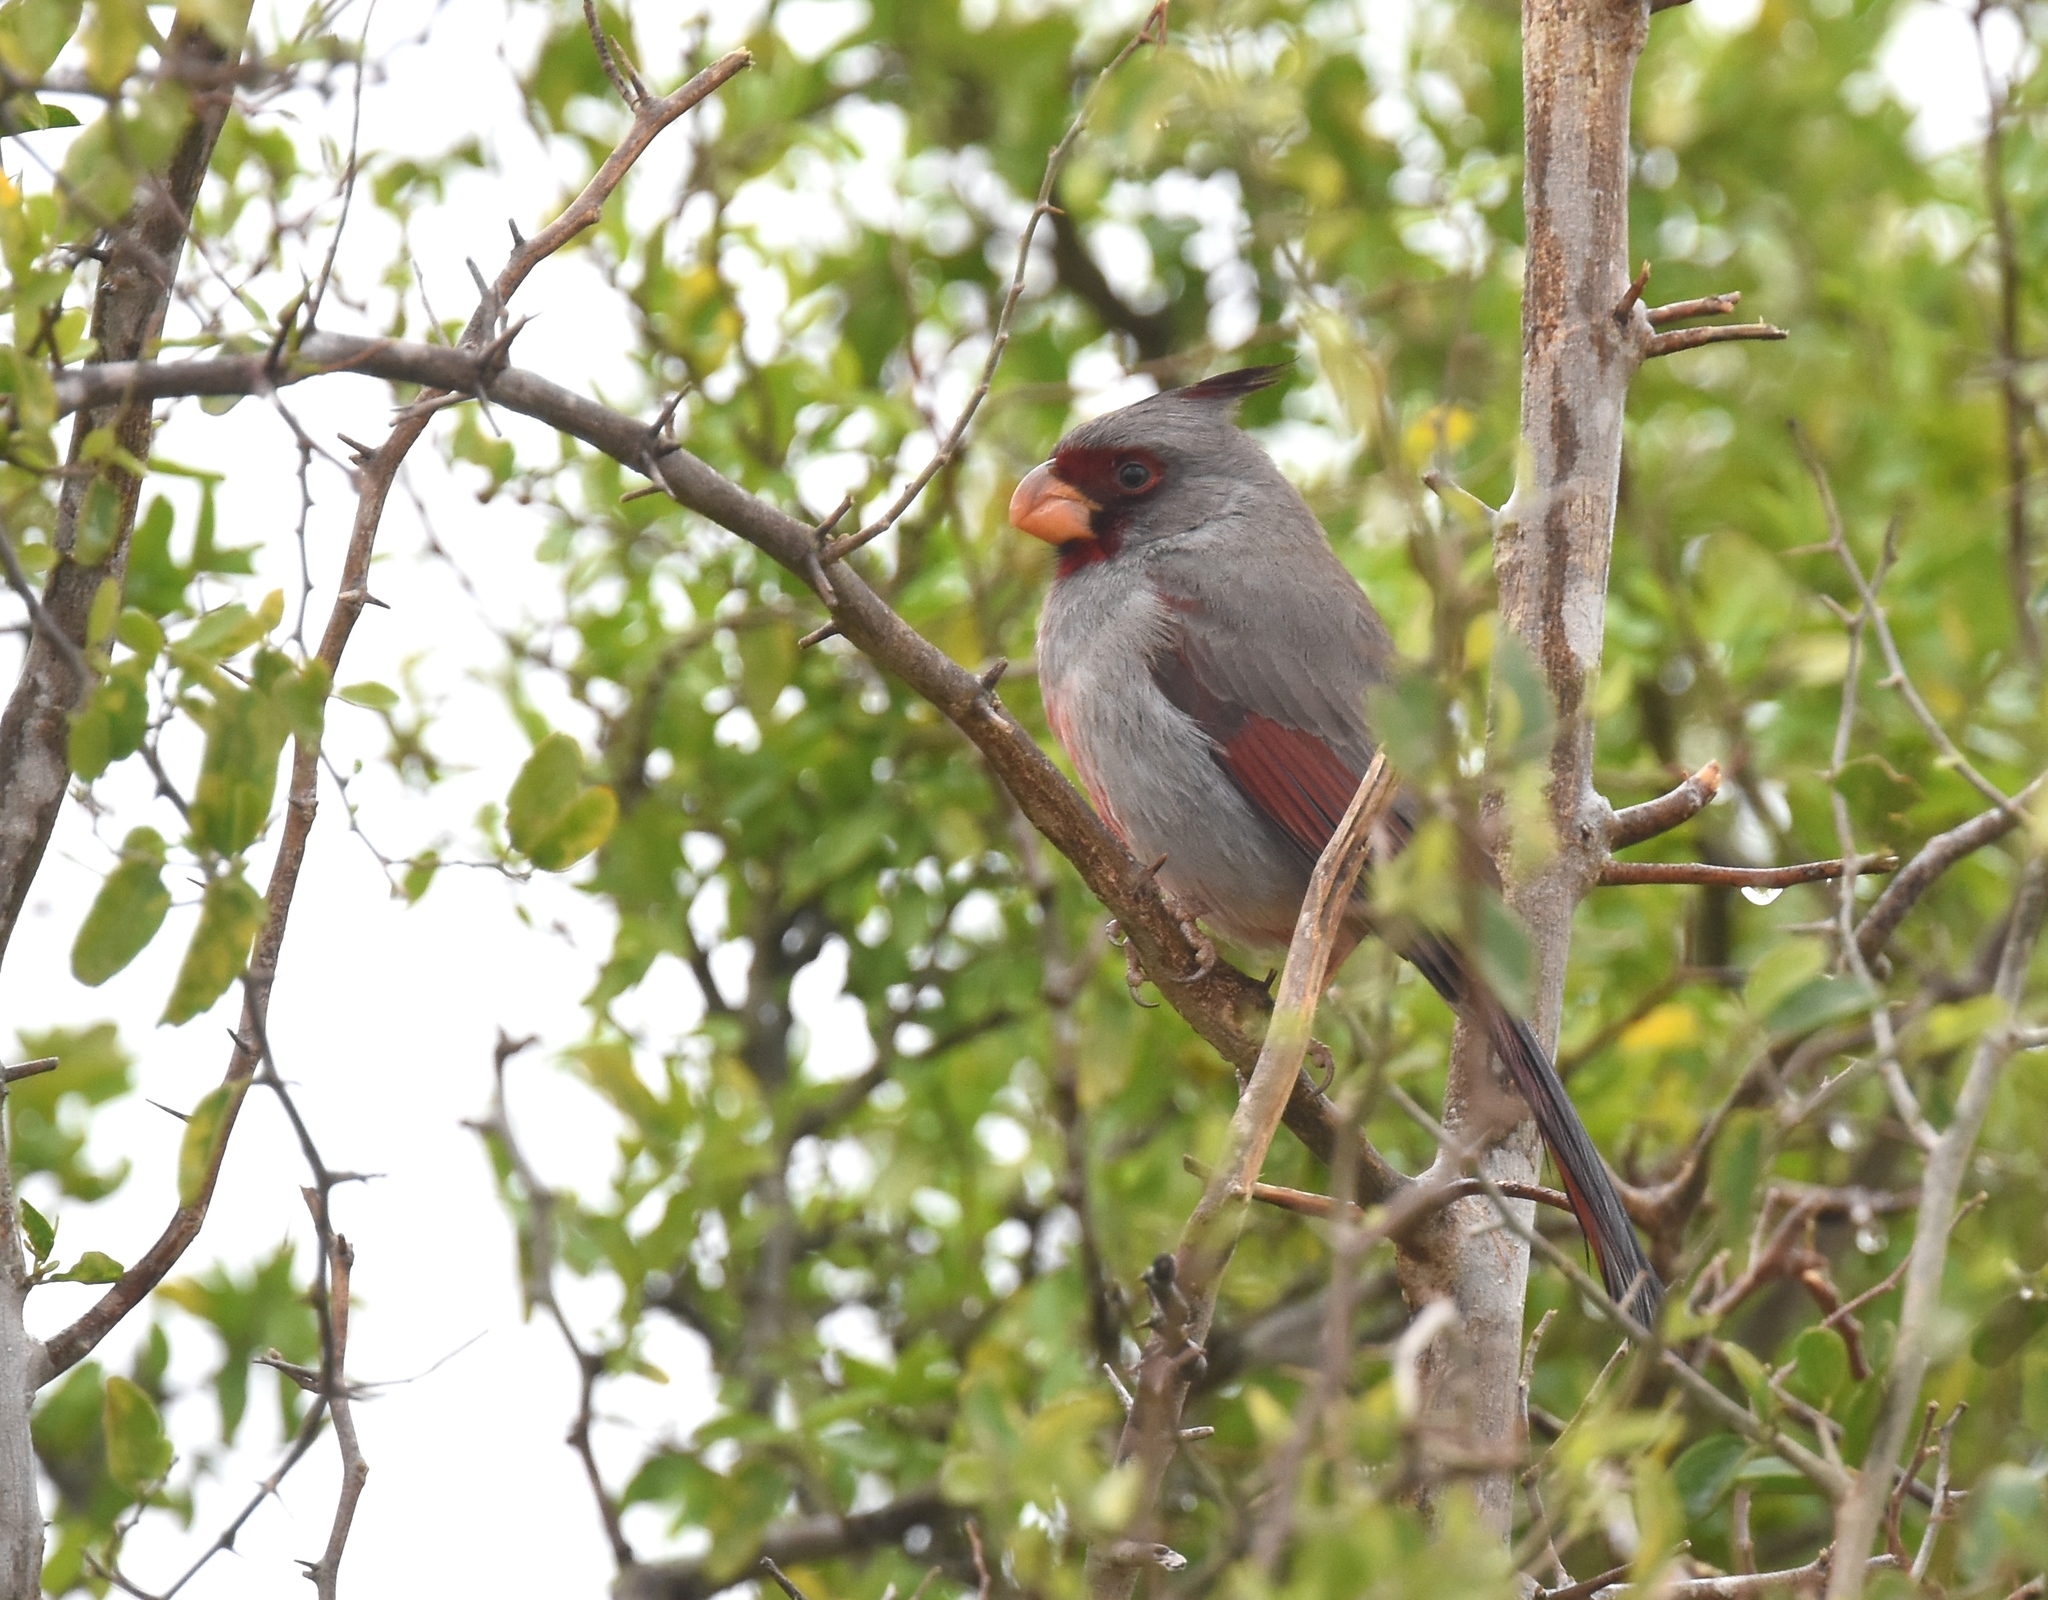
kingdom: Animalia
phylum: Chordata
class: Aves
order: Passeriformes
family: Cardinalidae
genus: Cardinalis
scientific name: Cardinalis sinuatus
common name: Pyrrhuloxia
